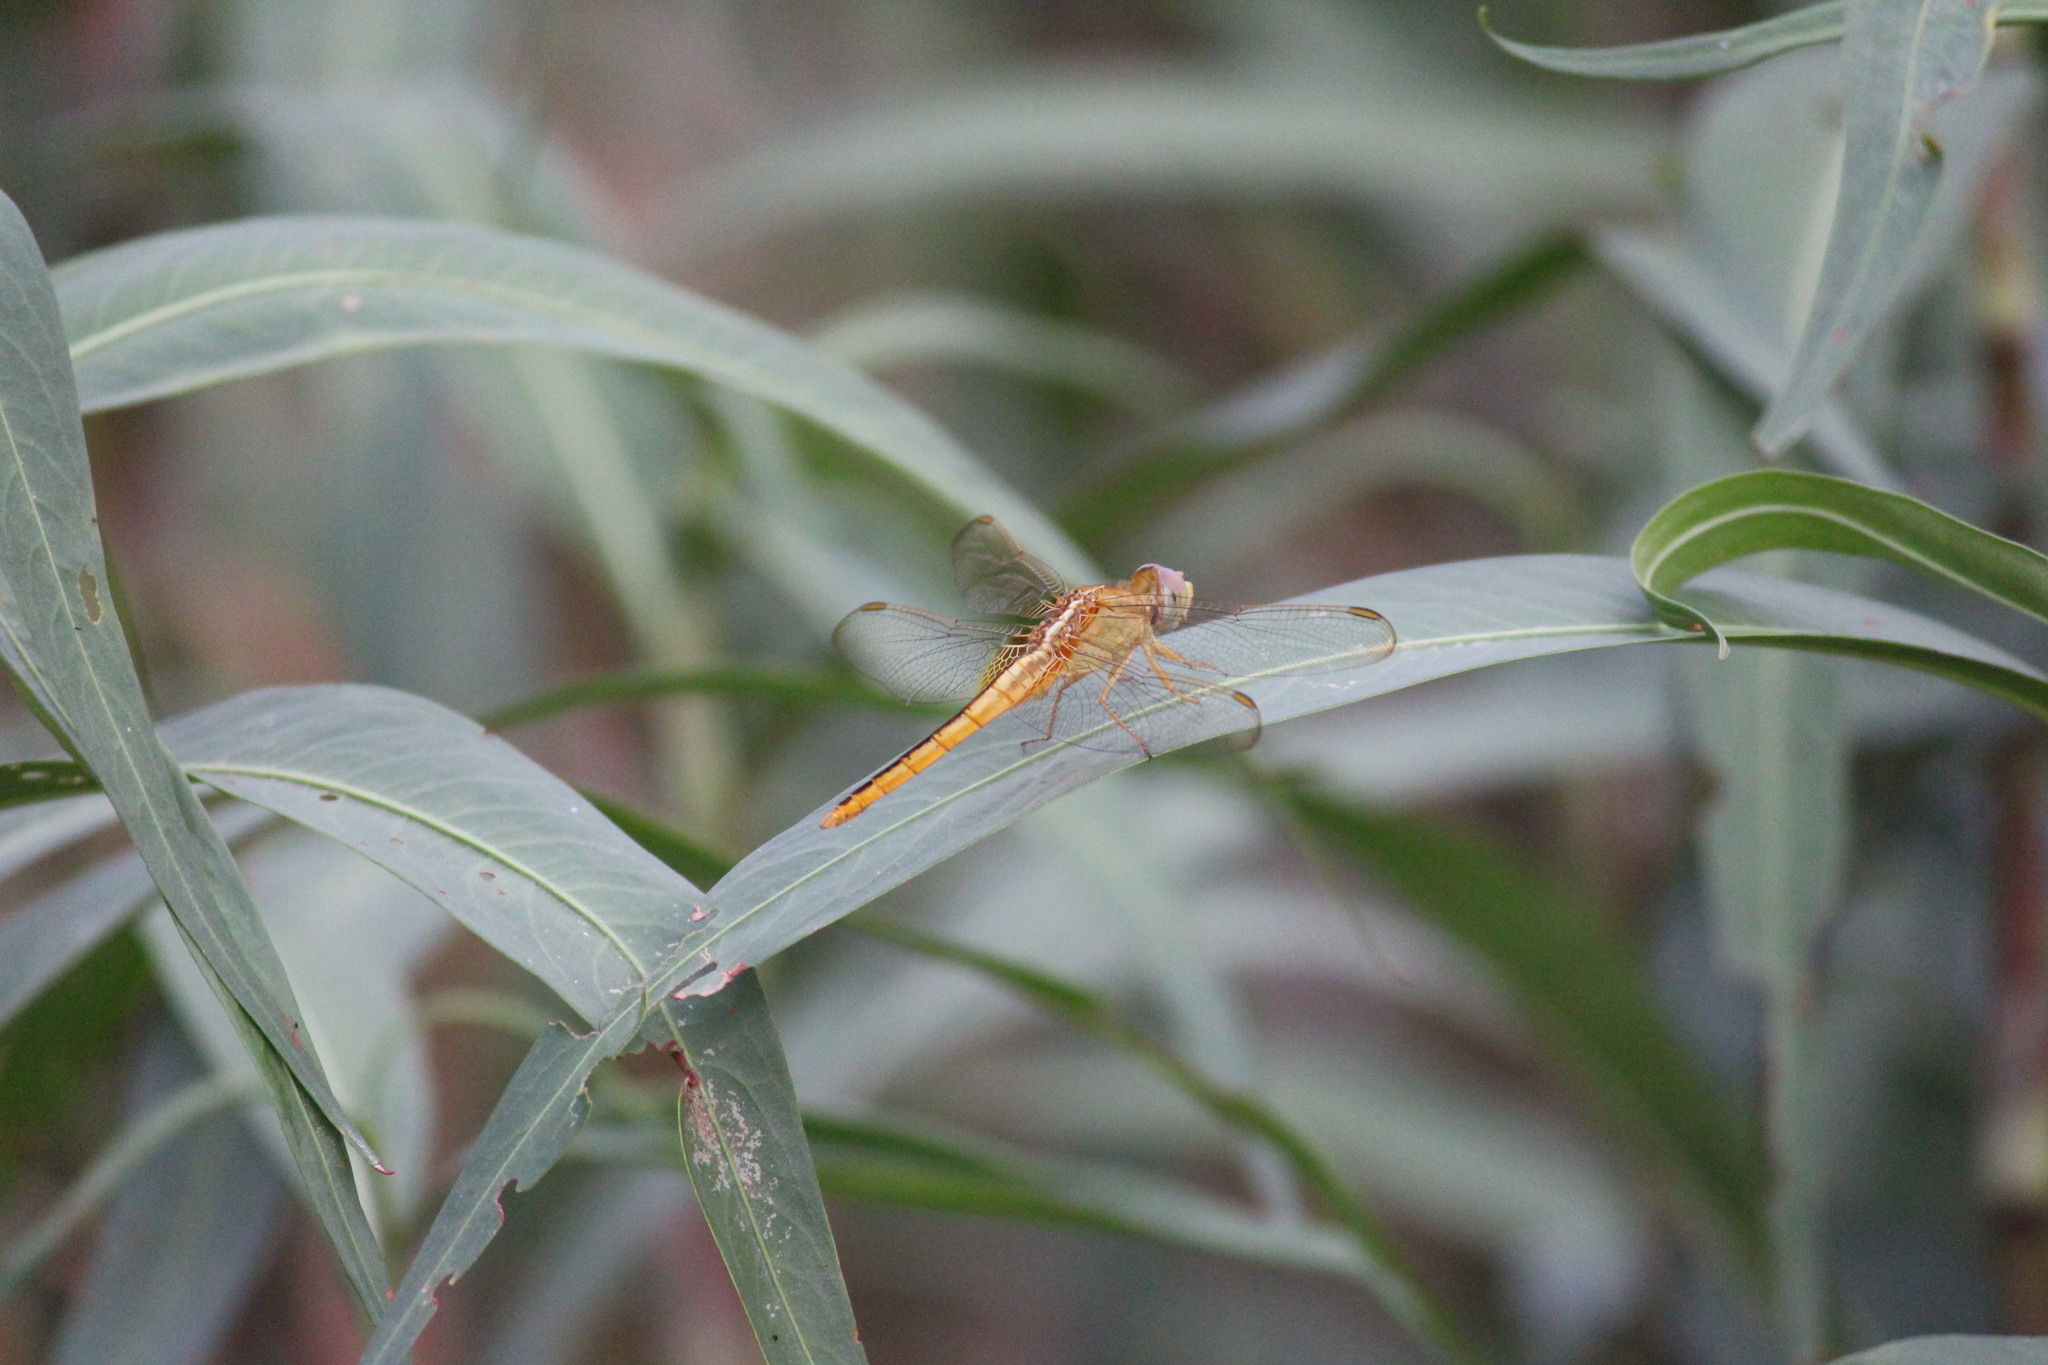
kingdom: Animalia
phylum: Arthropoda
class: Insecta
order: Odonata
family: Libellulidae
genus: Crocothemis
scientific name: Crocothemis servilia
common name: Scarlet skimmer
